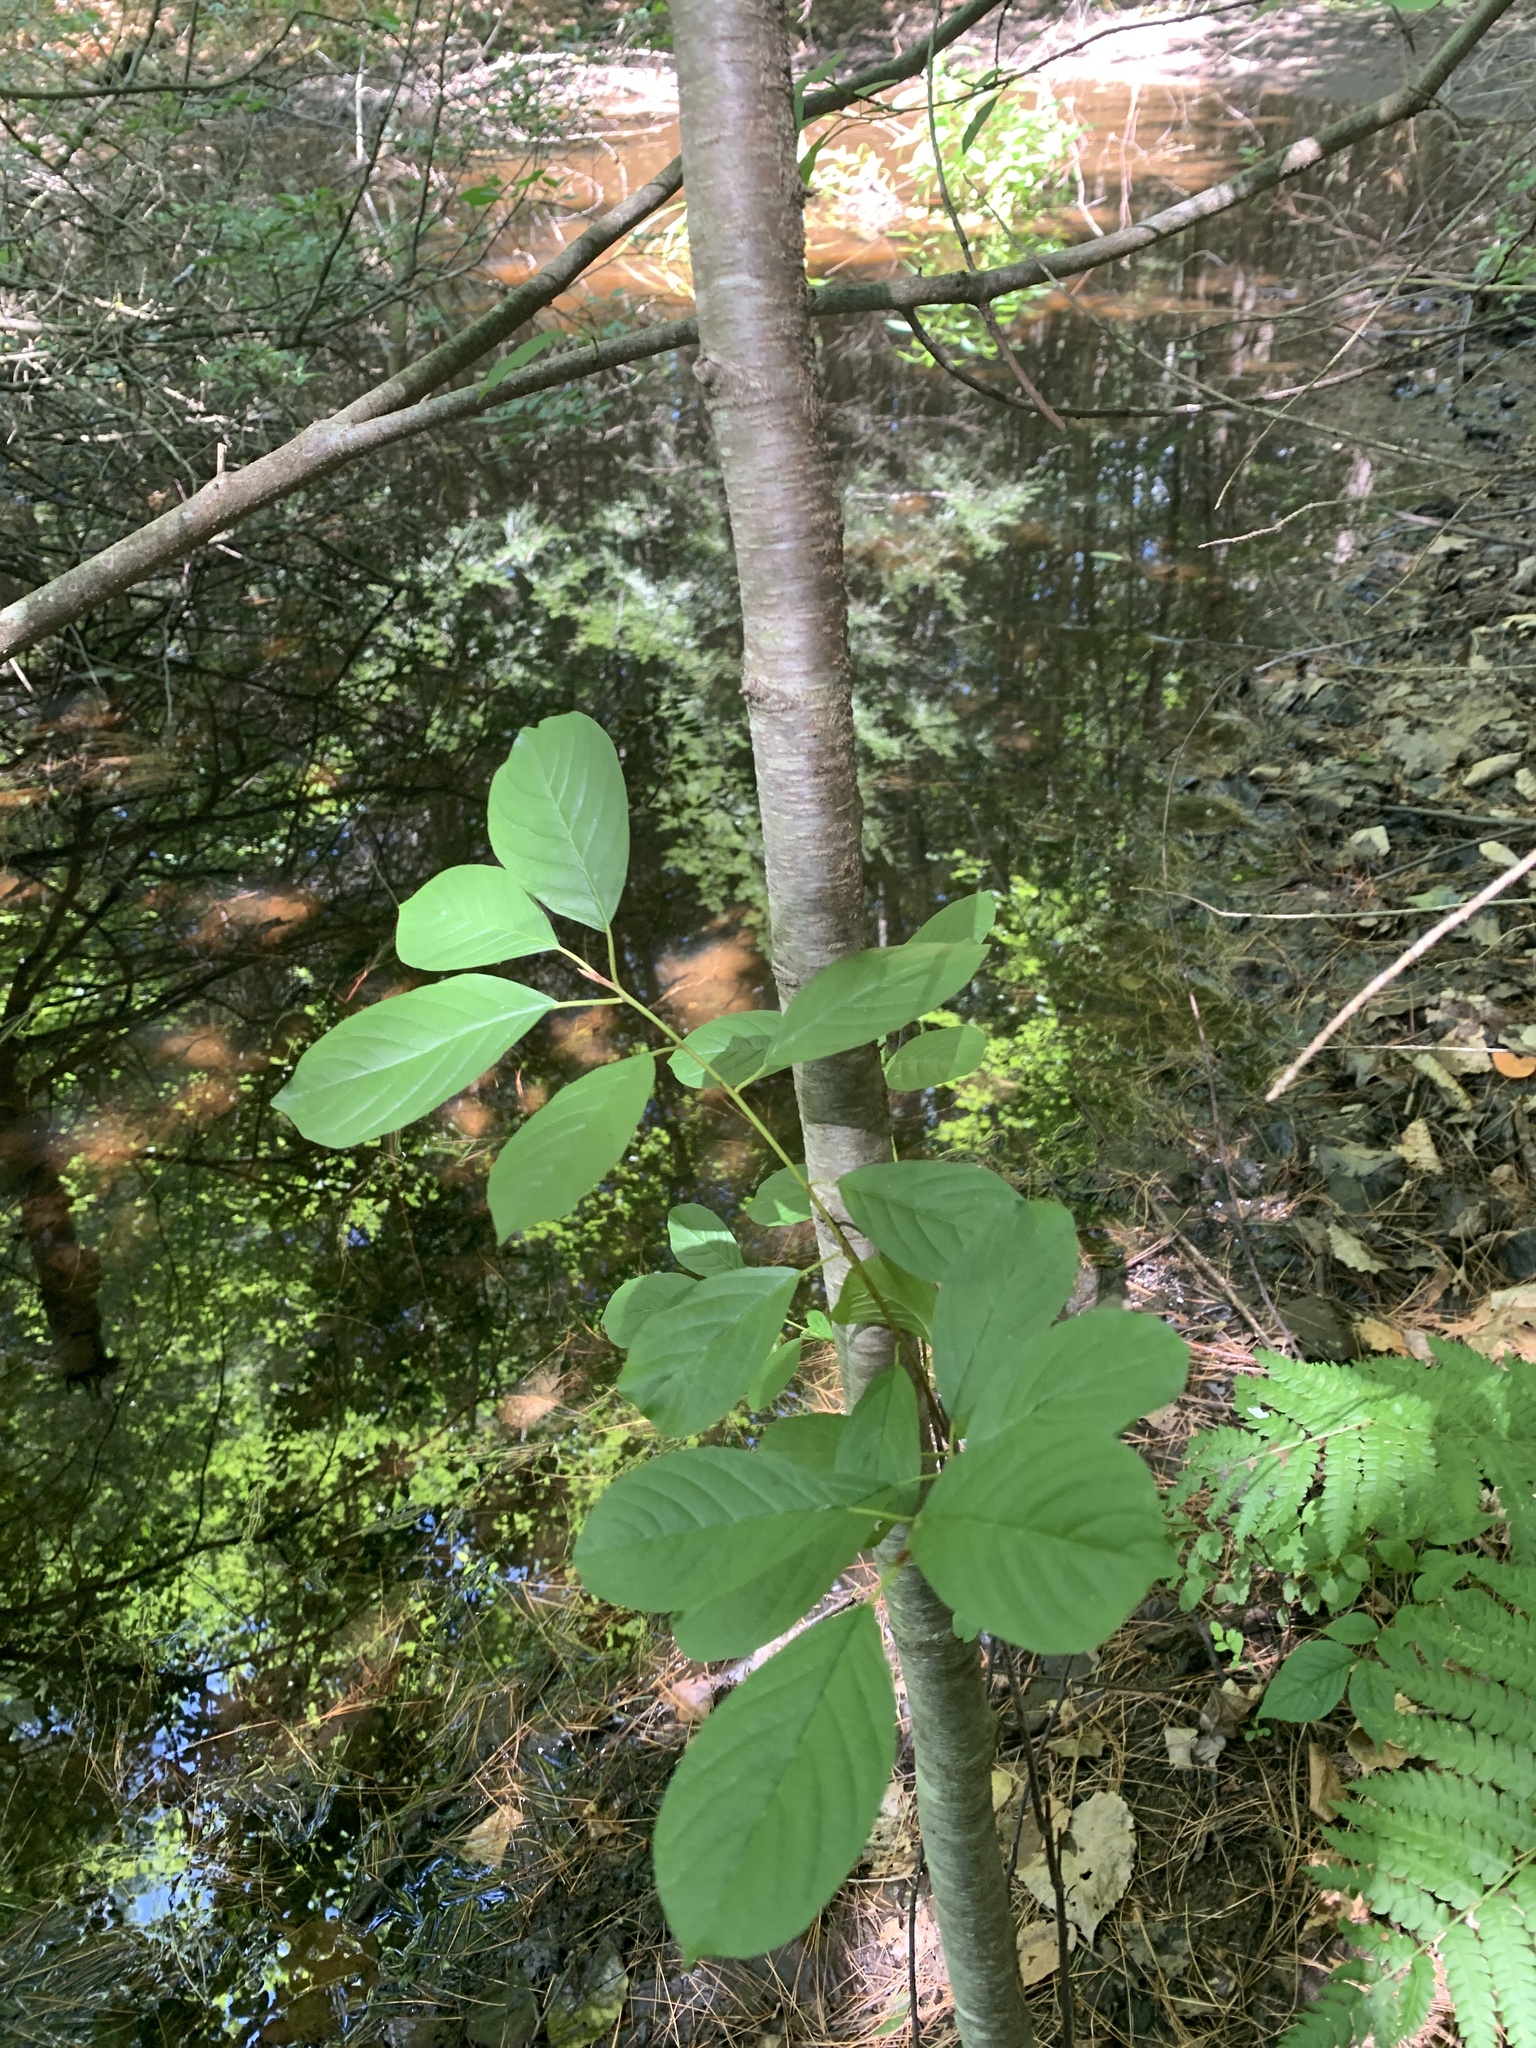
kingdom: Plantae
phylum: Tracheophyta
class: Magnoliopsida
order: Rosales
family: Rhamnaceae
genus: Frangula
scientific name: Frangula alnus
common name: Alder buckthorn
